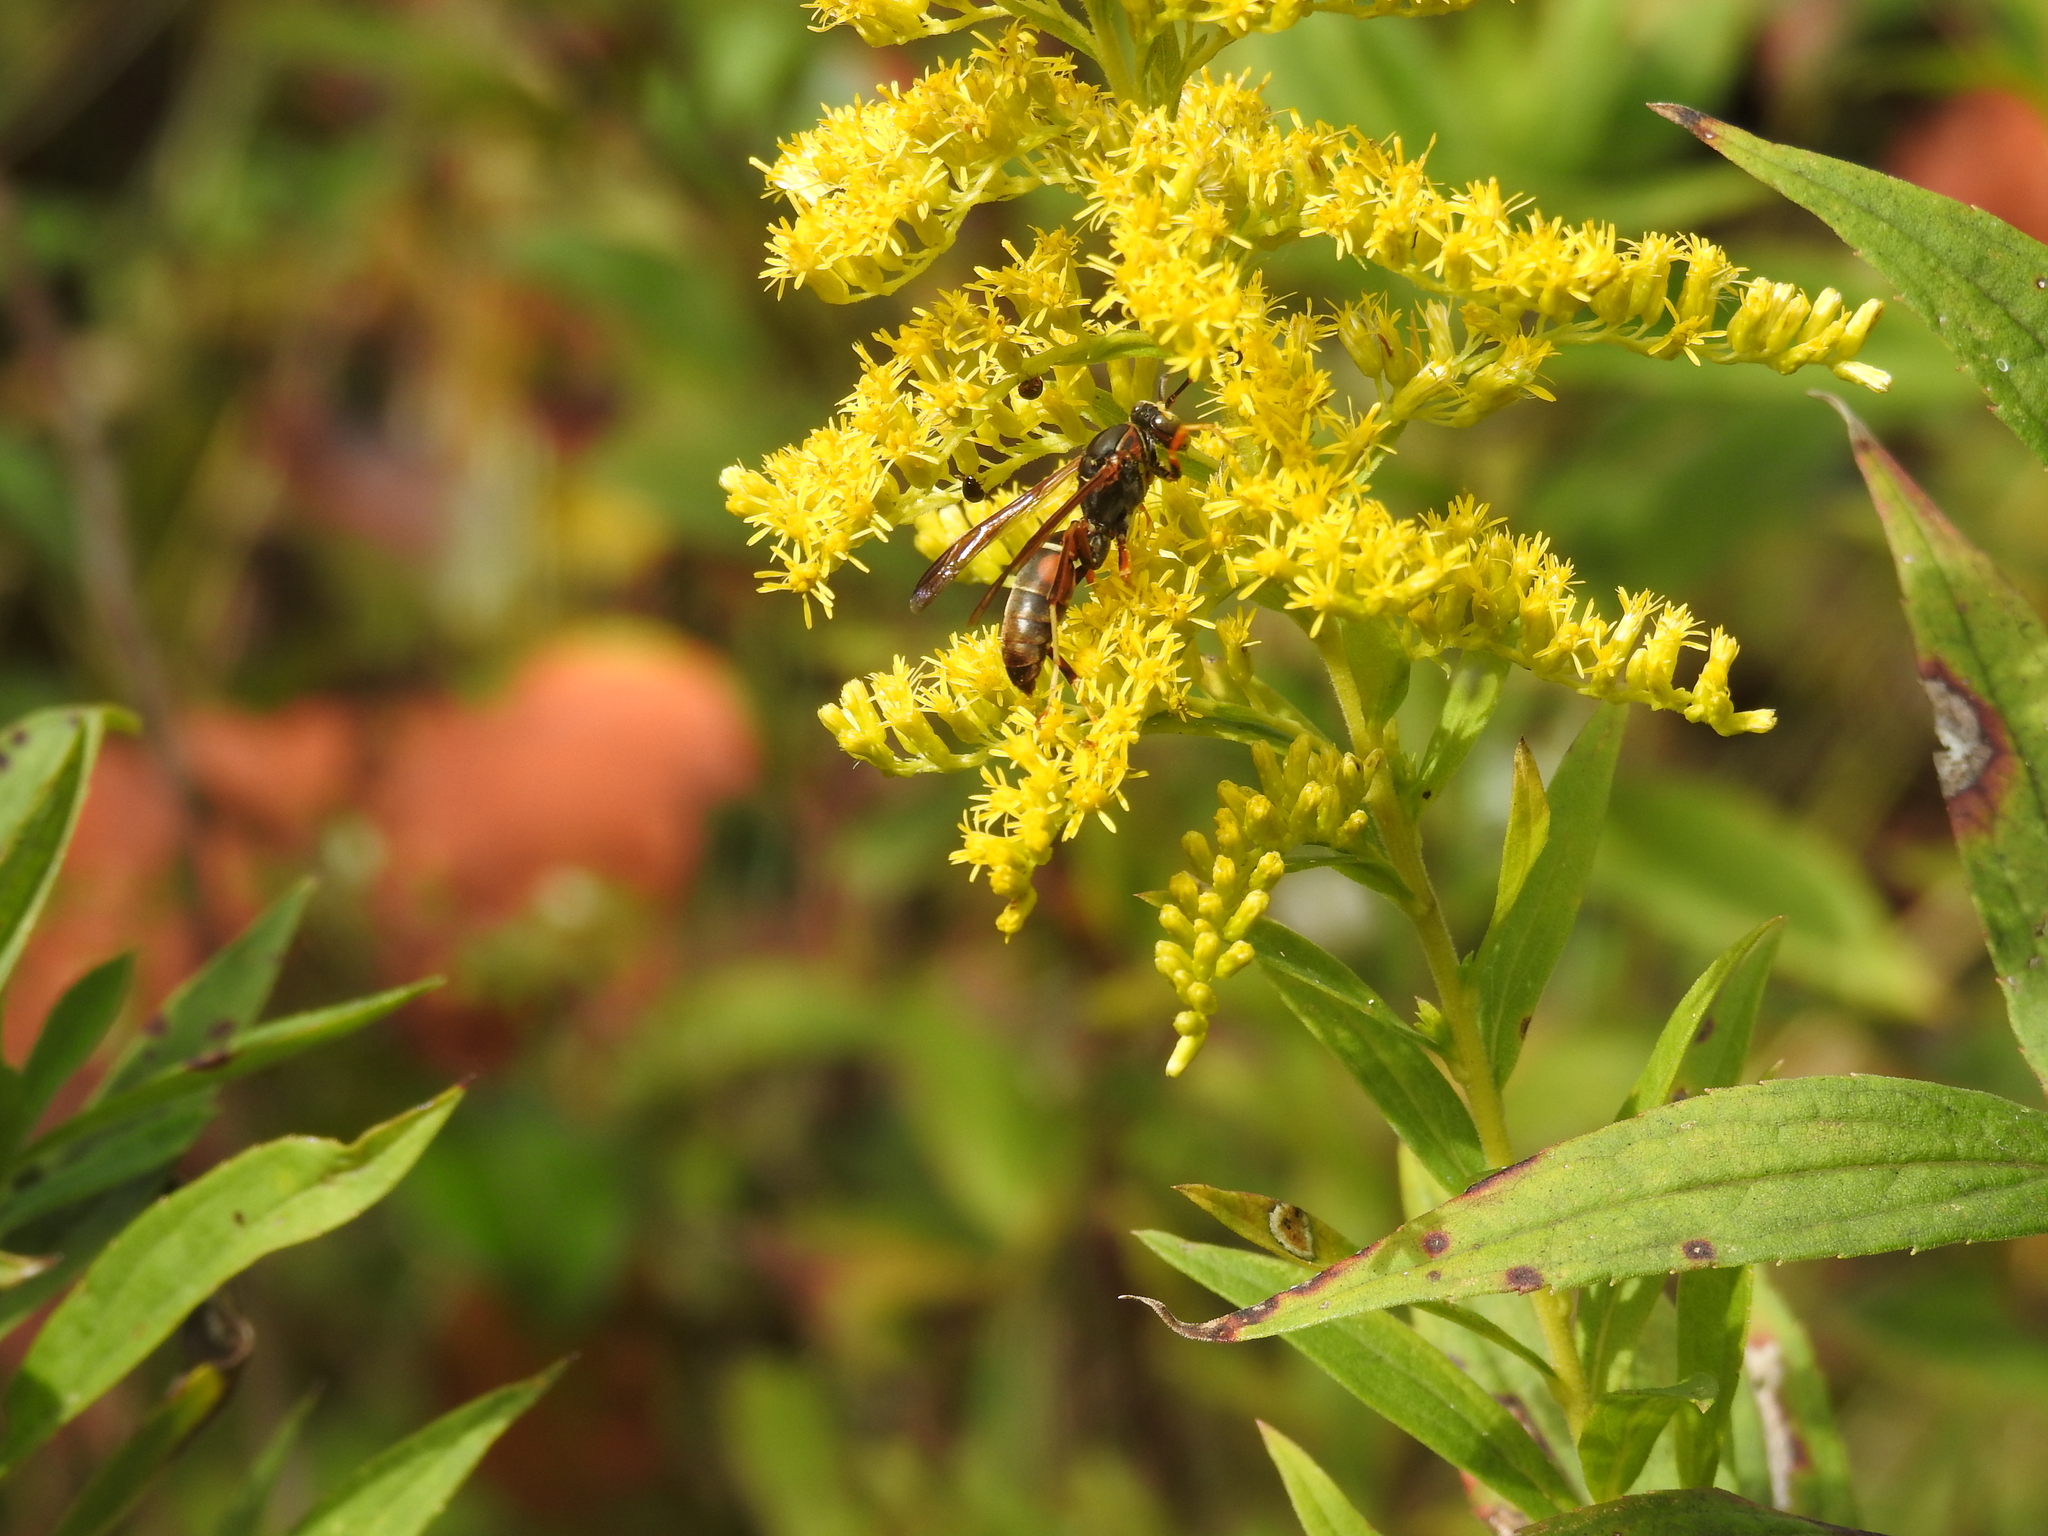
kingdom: Animalia
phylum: Arthropoda
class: Insecta
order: Hymenoptera
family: Eumenidae
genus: Polistes
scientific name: Polistes fuscatus
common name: Dark paper wasp
